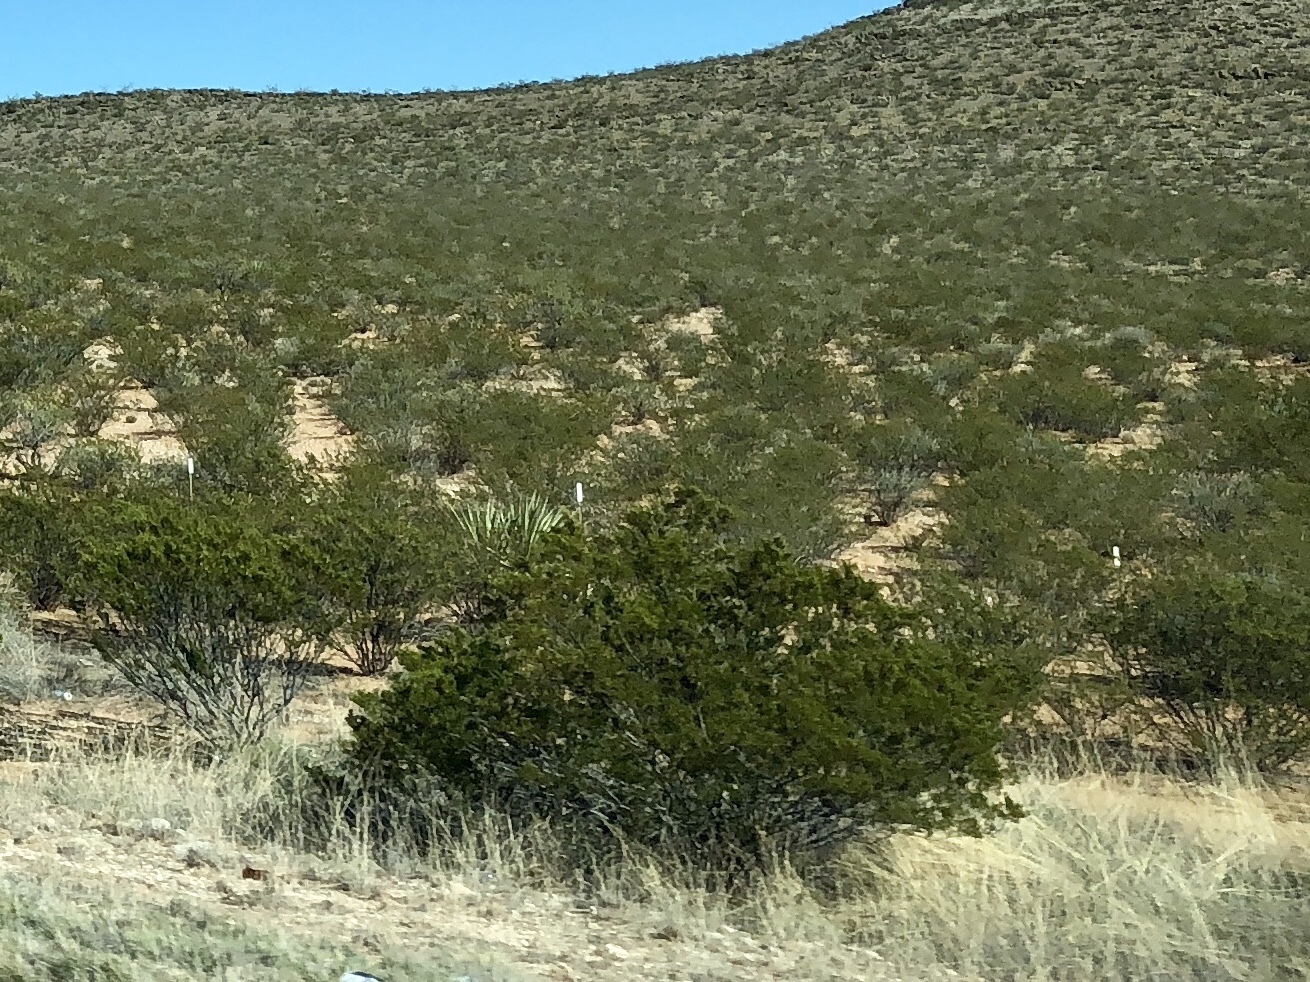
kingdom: Plantae
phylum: Tracheophyta
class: Magnoliopsida
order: Zygophyllales
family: Zygophyllaceae
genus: Larrea
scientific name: Larrea tridentata
